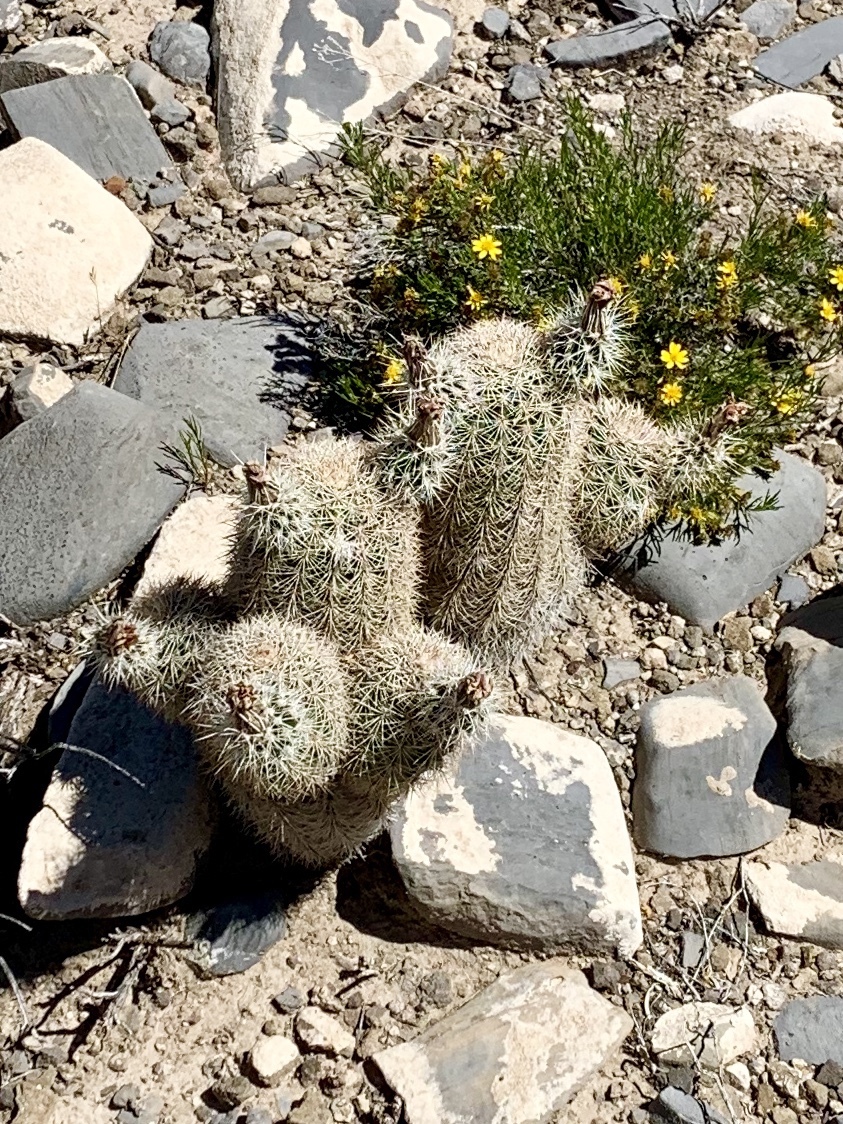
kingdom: Plantae
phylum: Tracheophyta
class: Magnoliopsida
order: Caryophyllales
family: Cactaceae
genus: Echinocereus
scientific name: Echinocereus dasyacanthus
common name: Spiny hedgehog cactus
